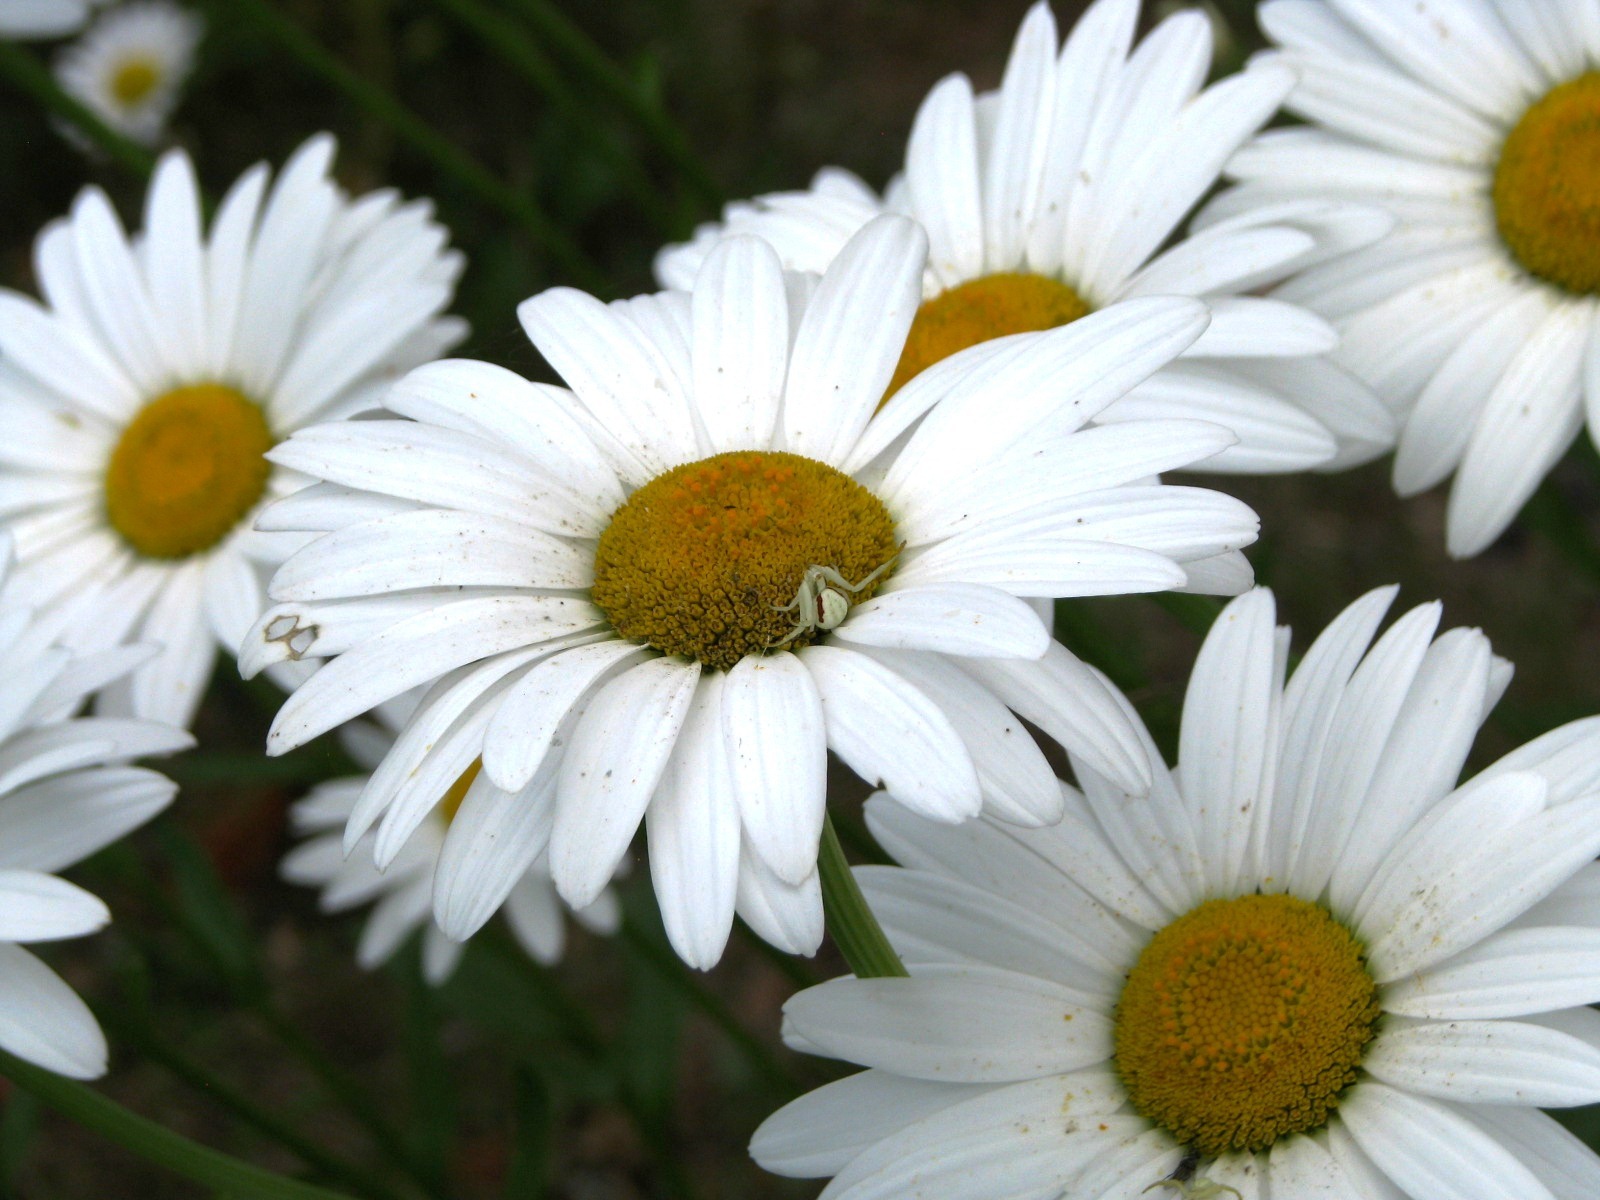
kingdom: Plantae
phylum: Tracheophyta
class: Magnoliopsida
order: Asterales
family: Asteraceae
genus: Leucanthemum
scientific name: Leucanthemum vulgare
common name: Oxeye daisy
